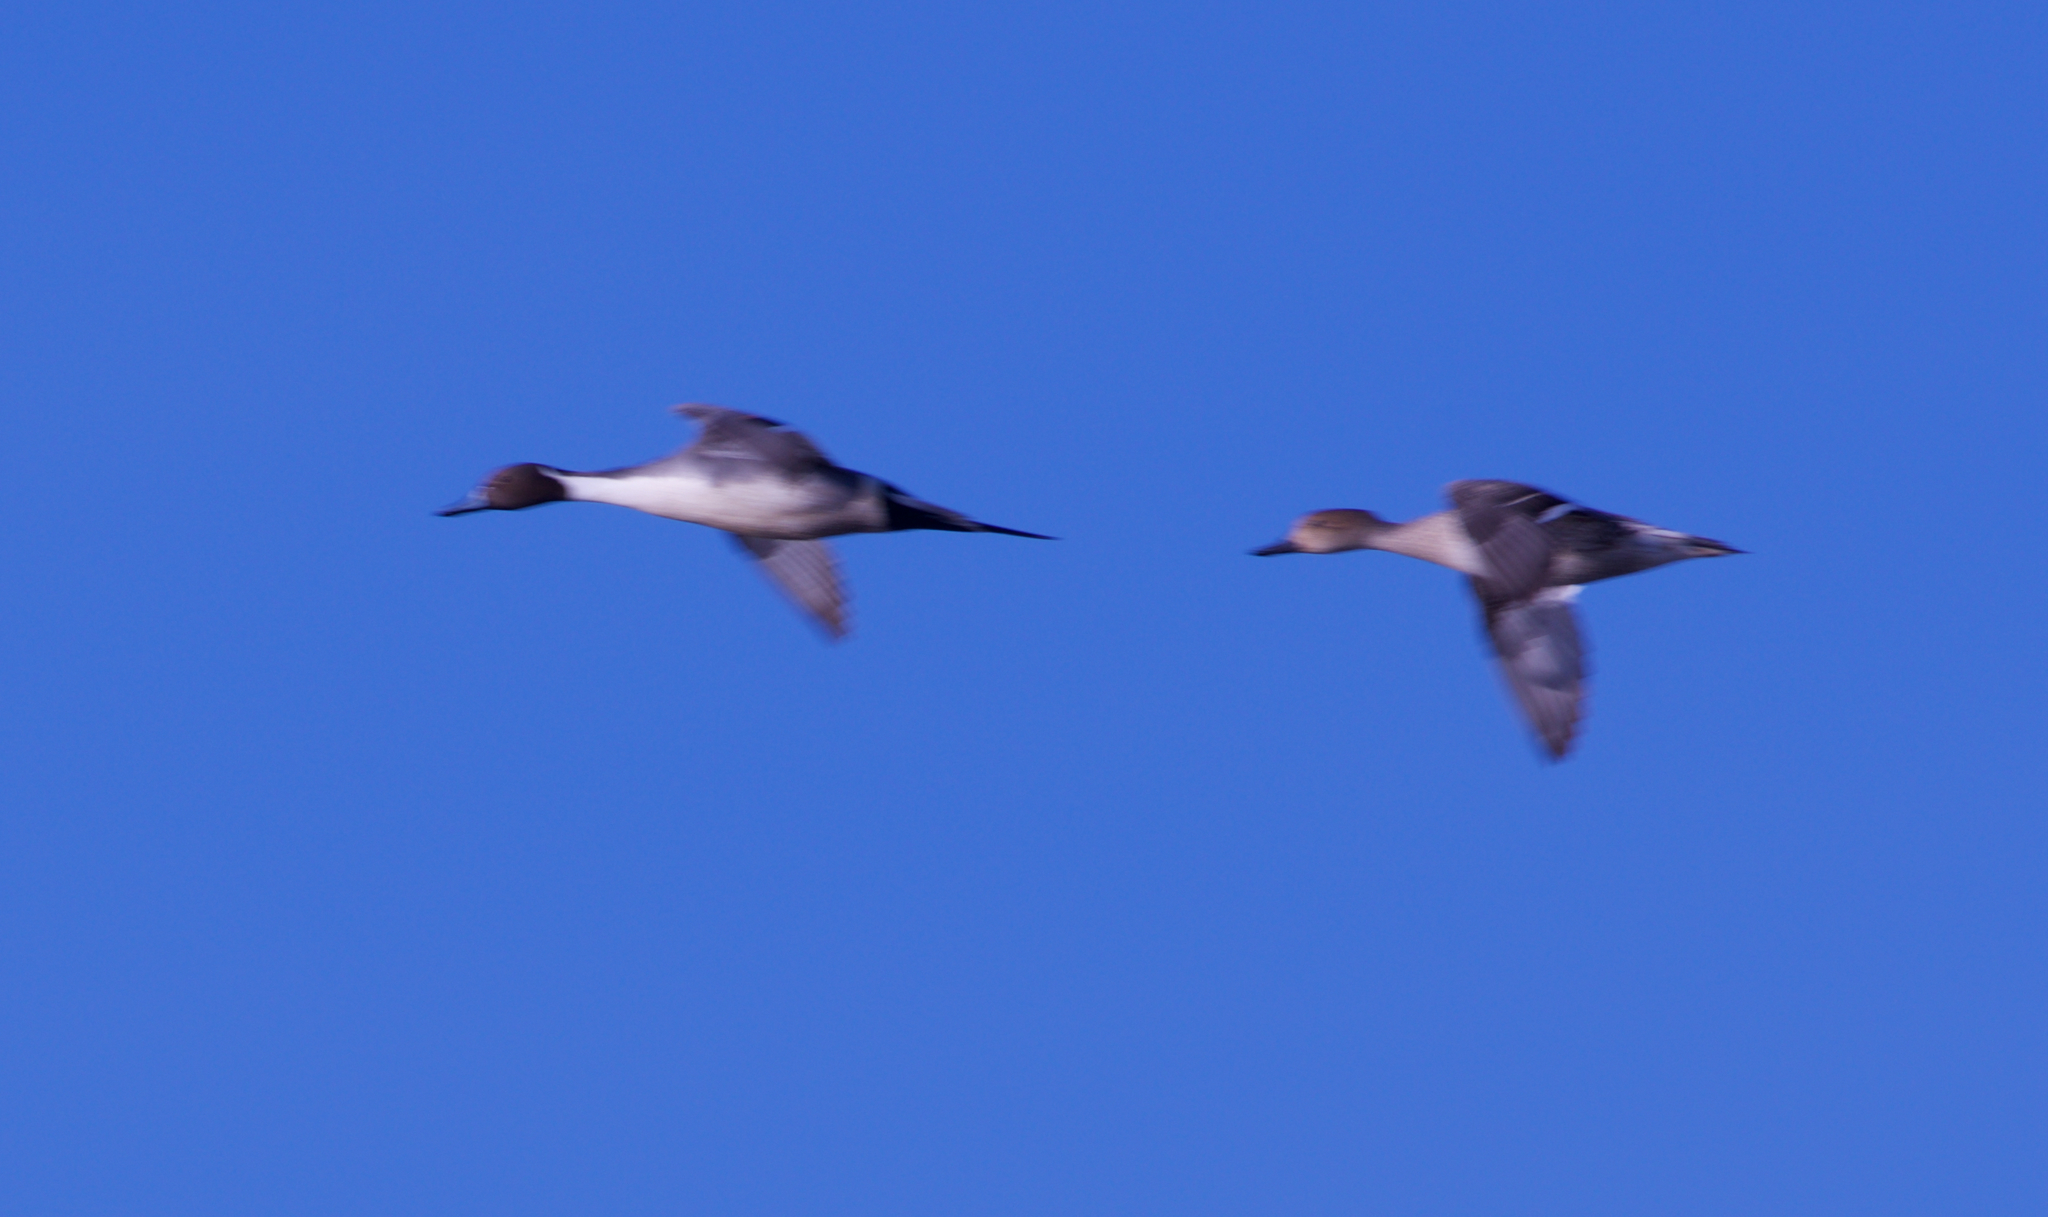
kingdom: Animalia
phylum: Chordata
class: Aves
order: Anseriformes
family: Anatidae
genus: Anas
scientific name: Anas acuta
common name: Northern pintail
